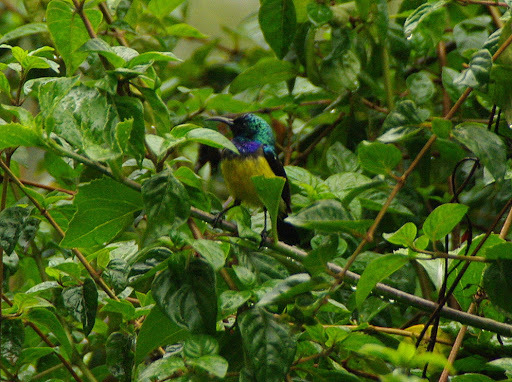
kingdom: Animalia
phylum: Chordata
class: Aves
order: Passeriformes
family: Nectariniidae
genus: Cinnyris
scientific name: Cinnyris venustus
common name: Variable sunbird
